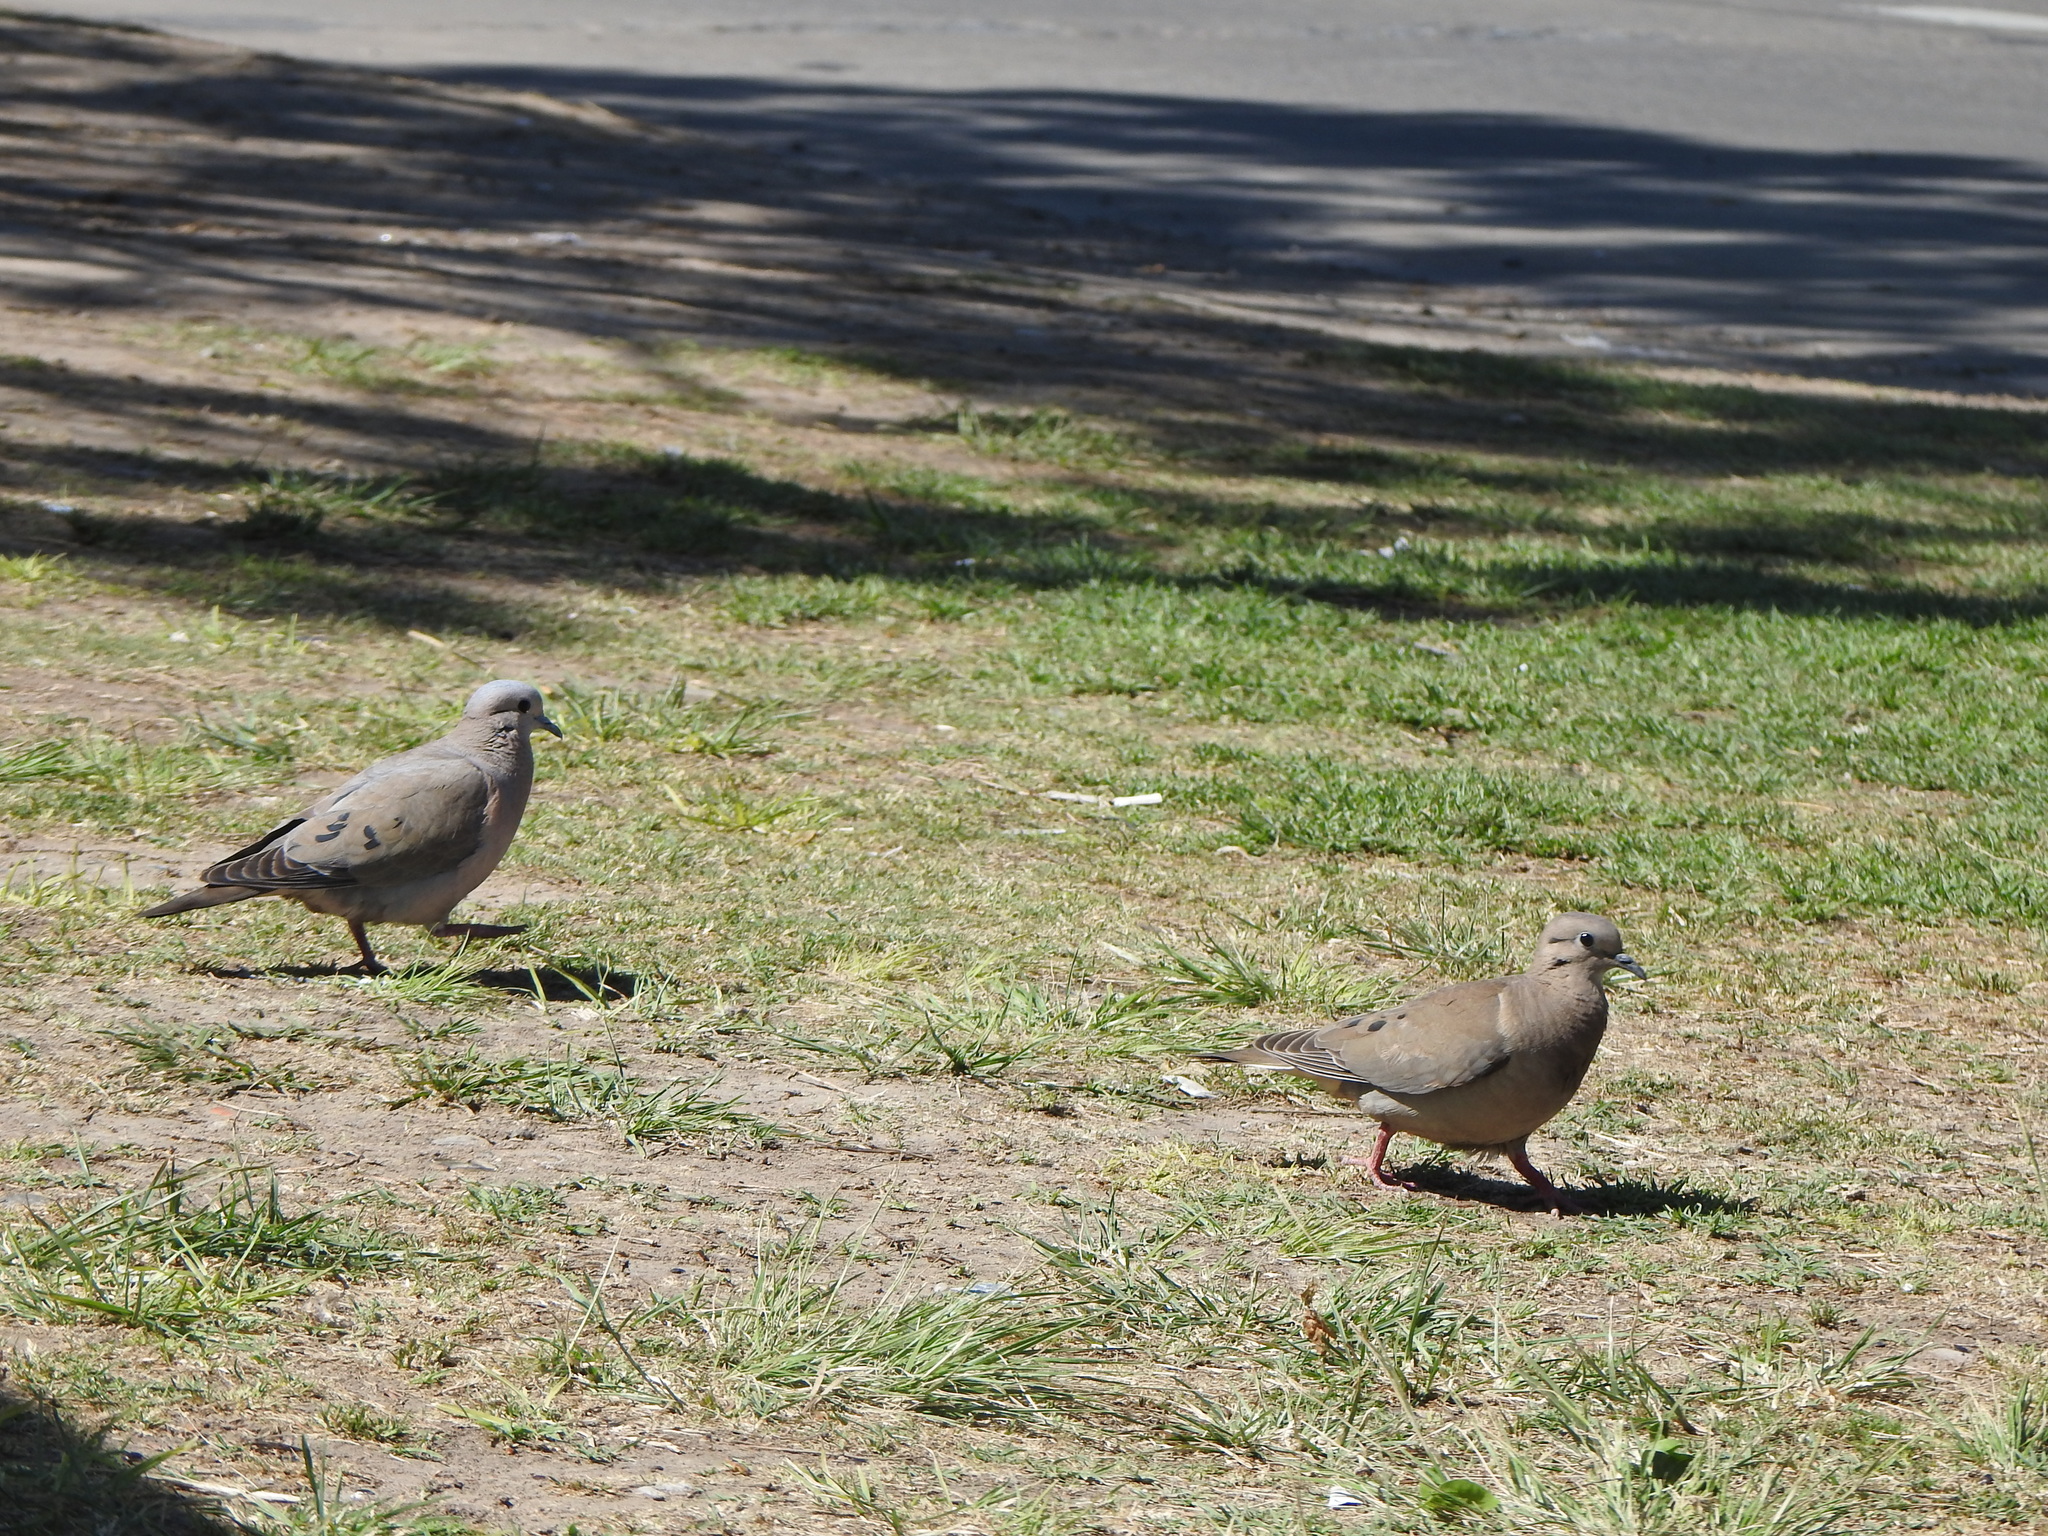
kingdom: Animalia
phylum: Chordata
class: Aves
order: Columbiformes
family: Columbidae
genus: Zenaida
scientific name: Zenaida auriculata
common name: Eared dove
